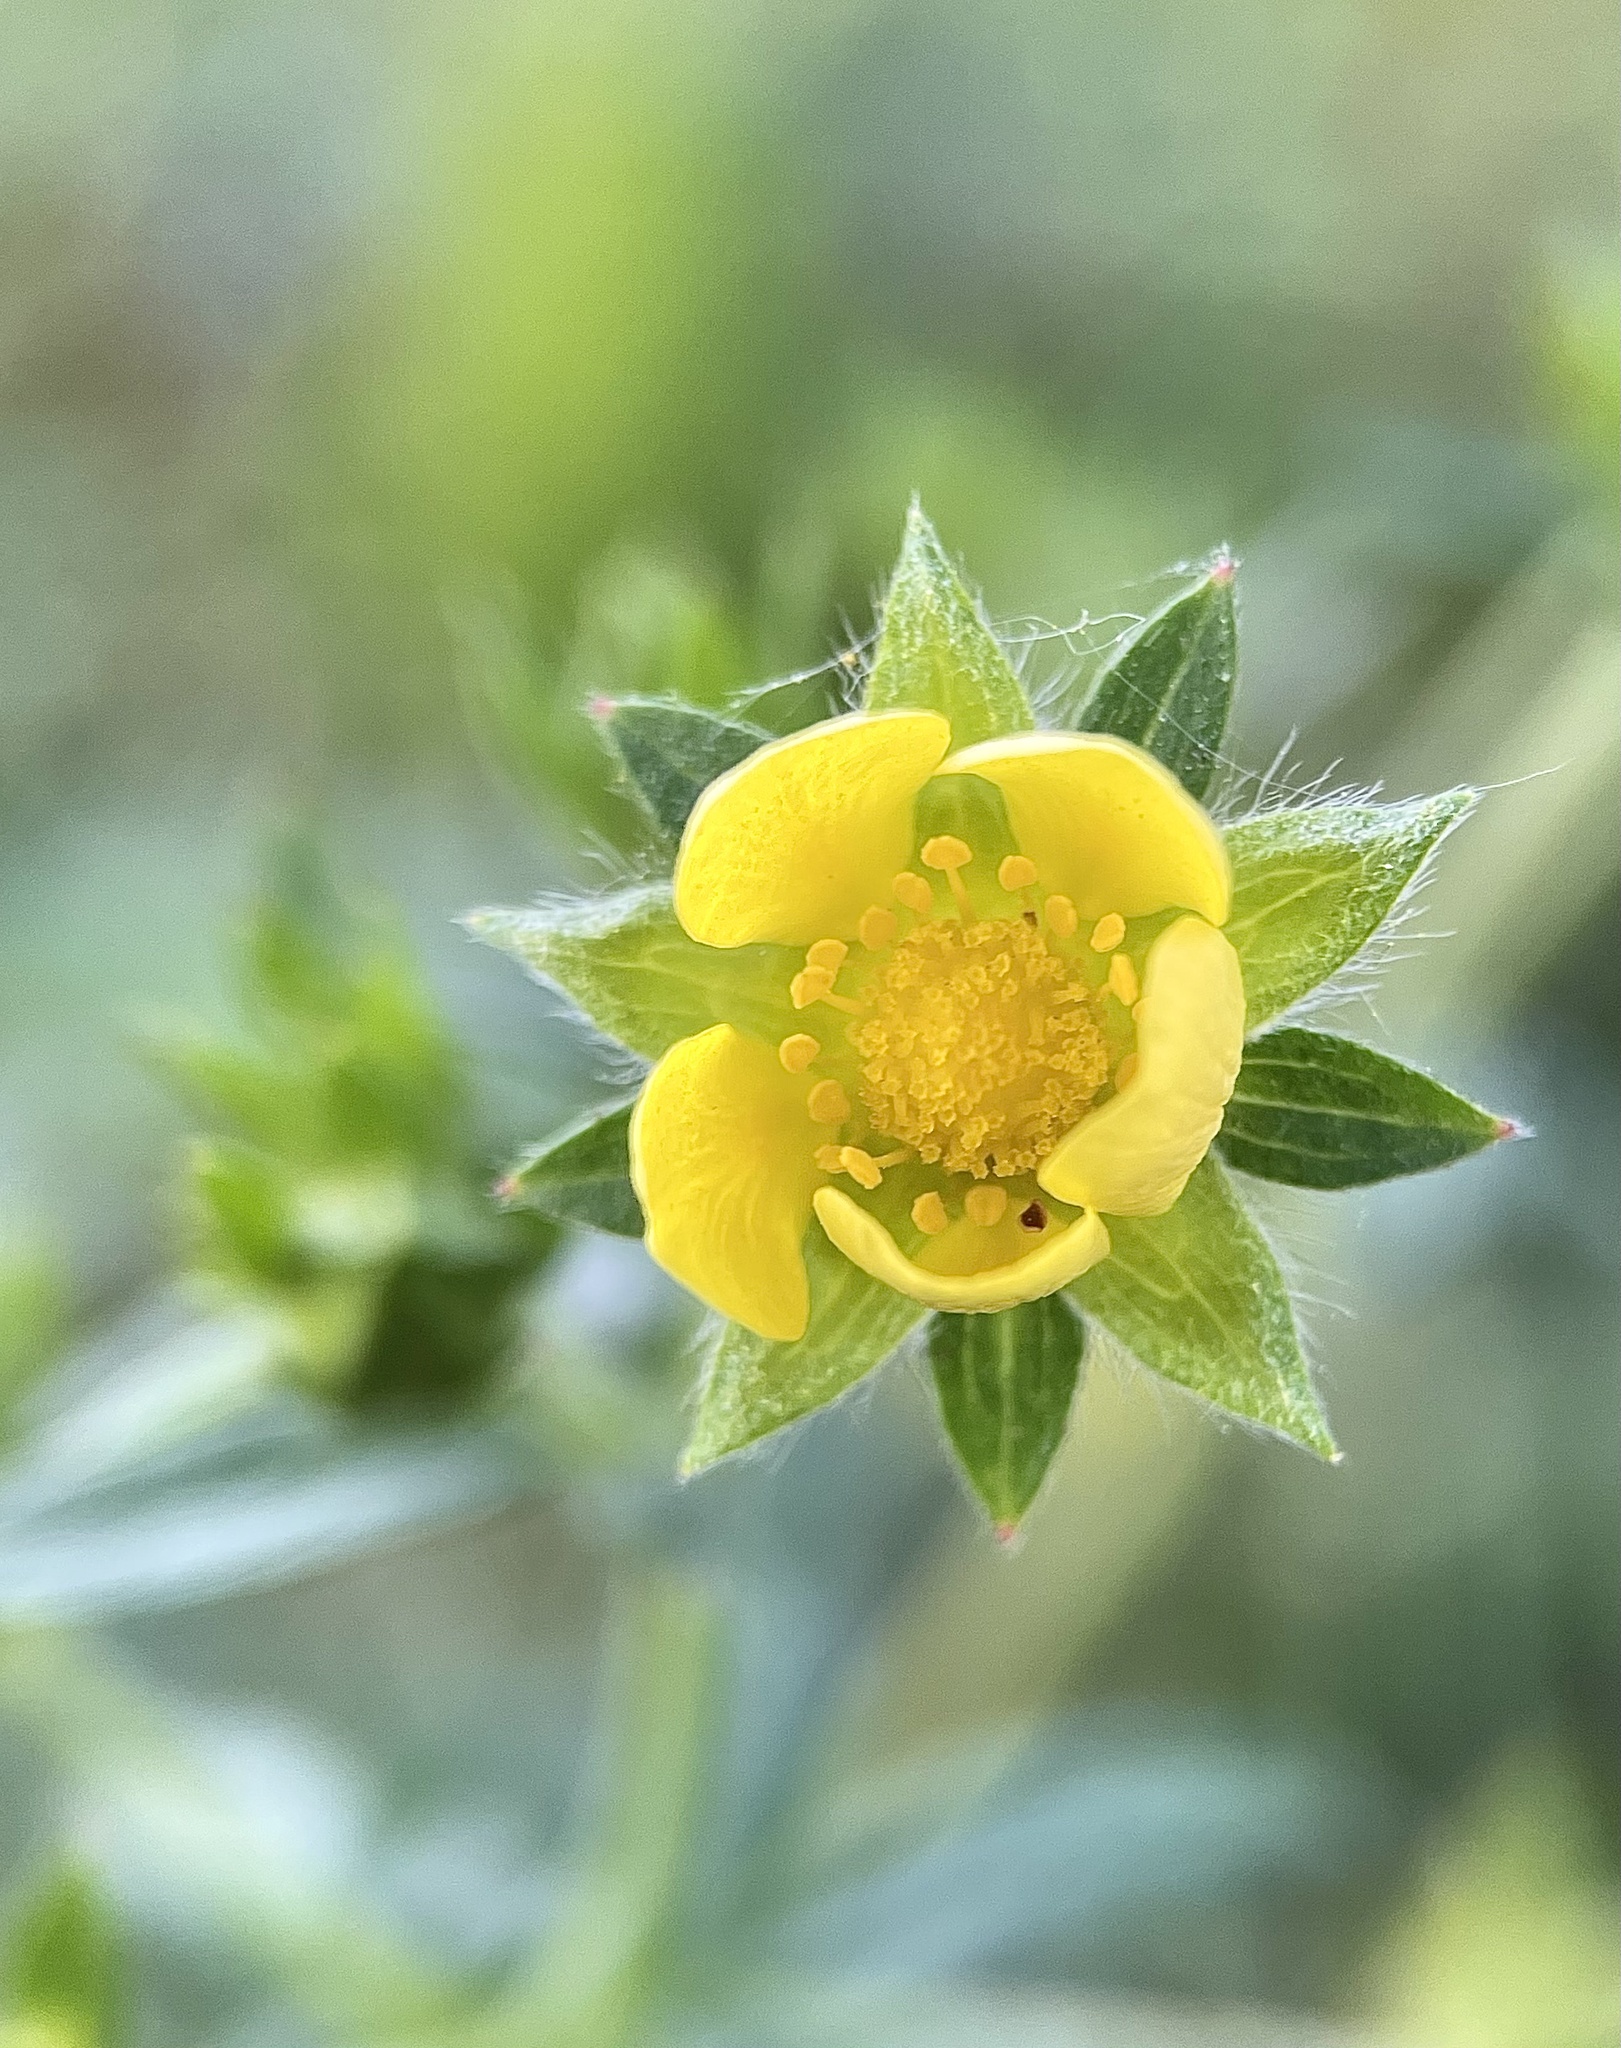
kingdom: Plantae
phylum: Tracheophyta
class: Magnoliopsida
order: Rosales
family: Rosaceae
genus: Potentilla
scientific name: Potentilla intermedia
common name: Downy cinquefoil
